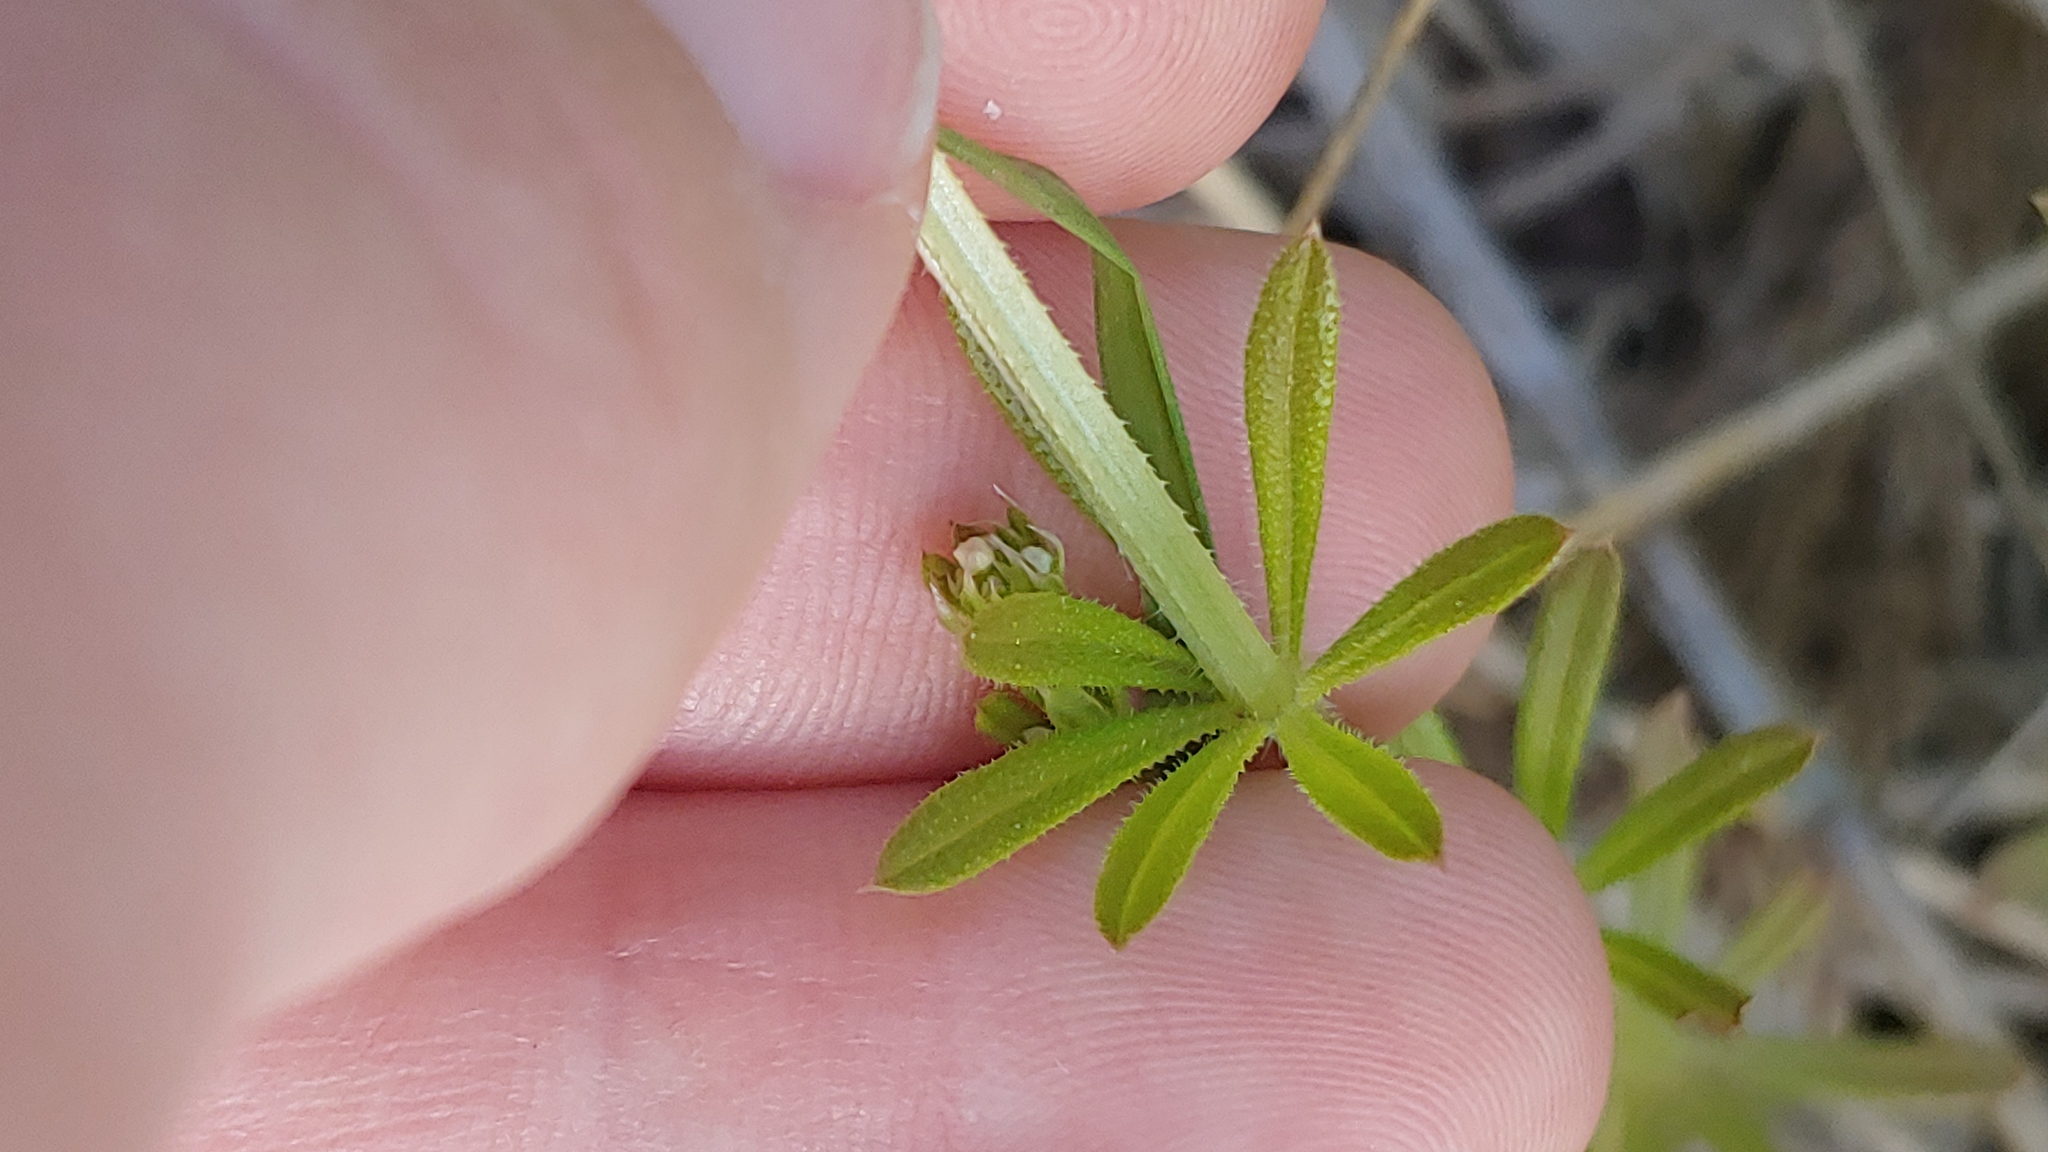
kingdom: Plantae
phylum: Tracheophyta
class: Magnoliopsida
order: Gentianales
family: Rubiaceae
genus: Galium
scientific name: Galium aparine
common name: Cleavers
